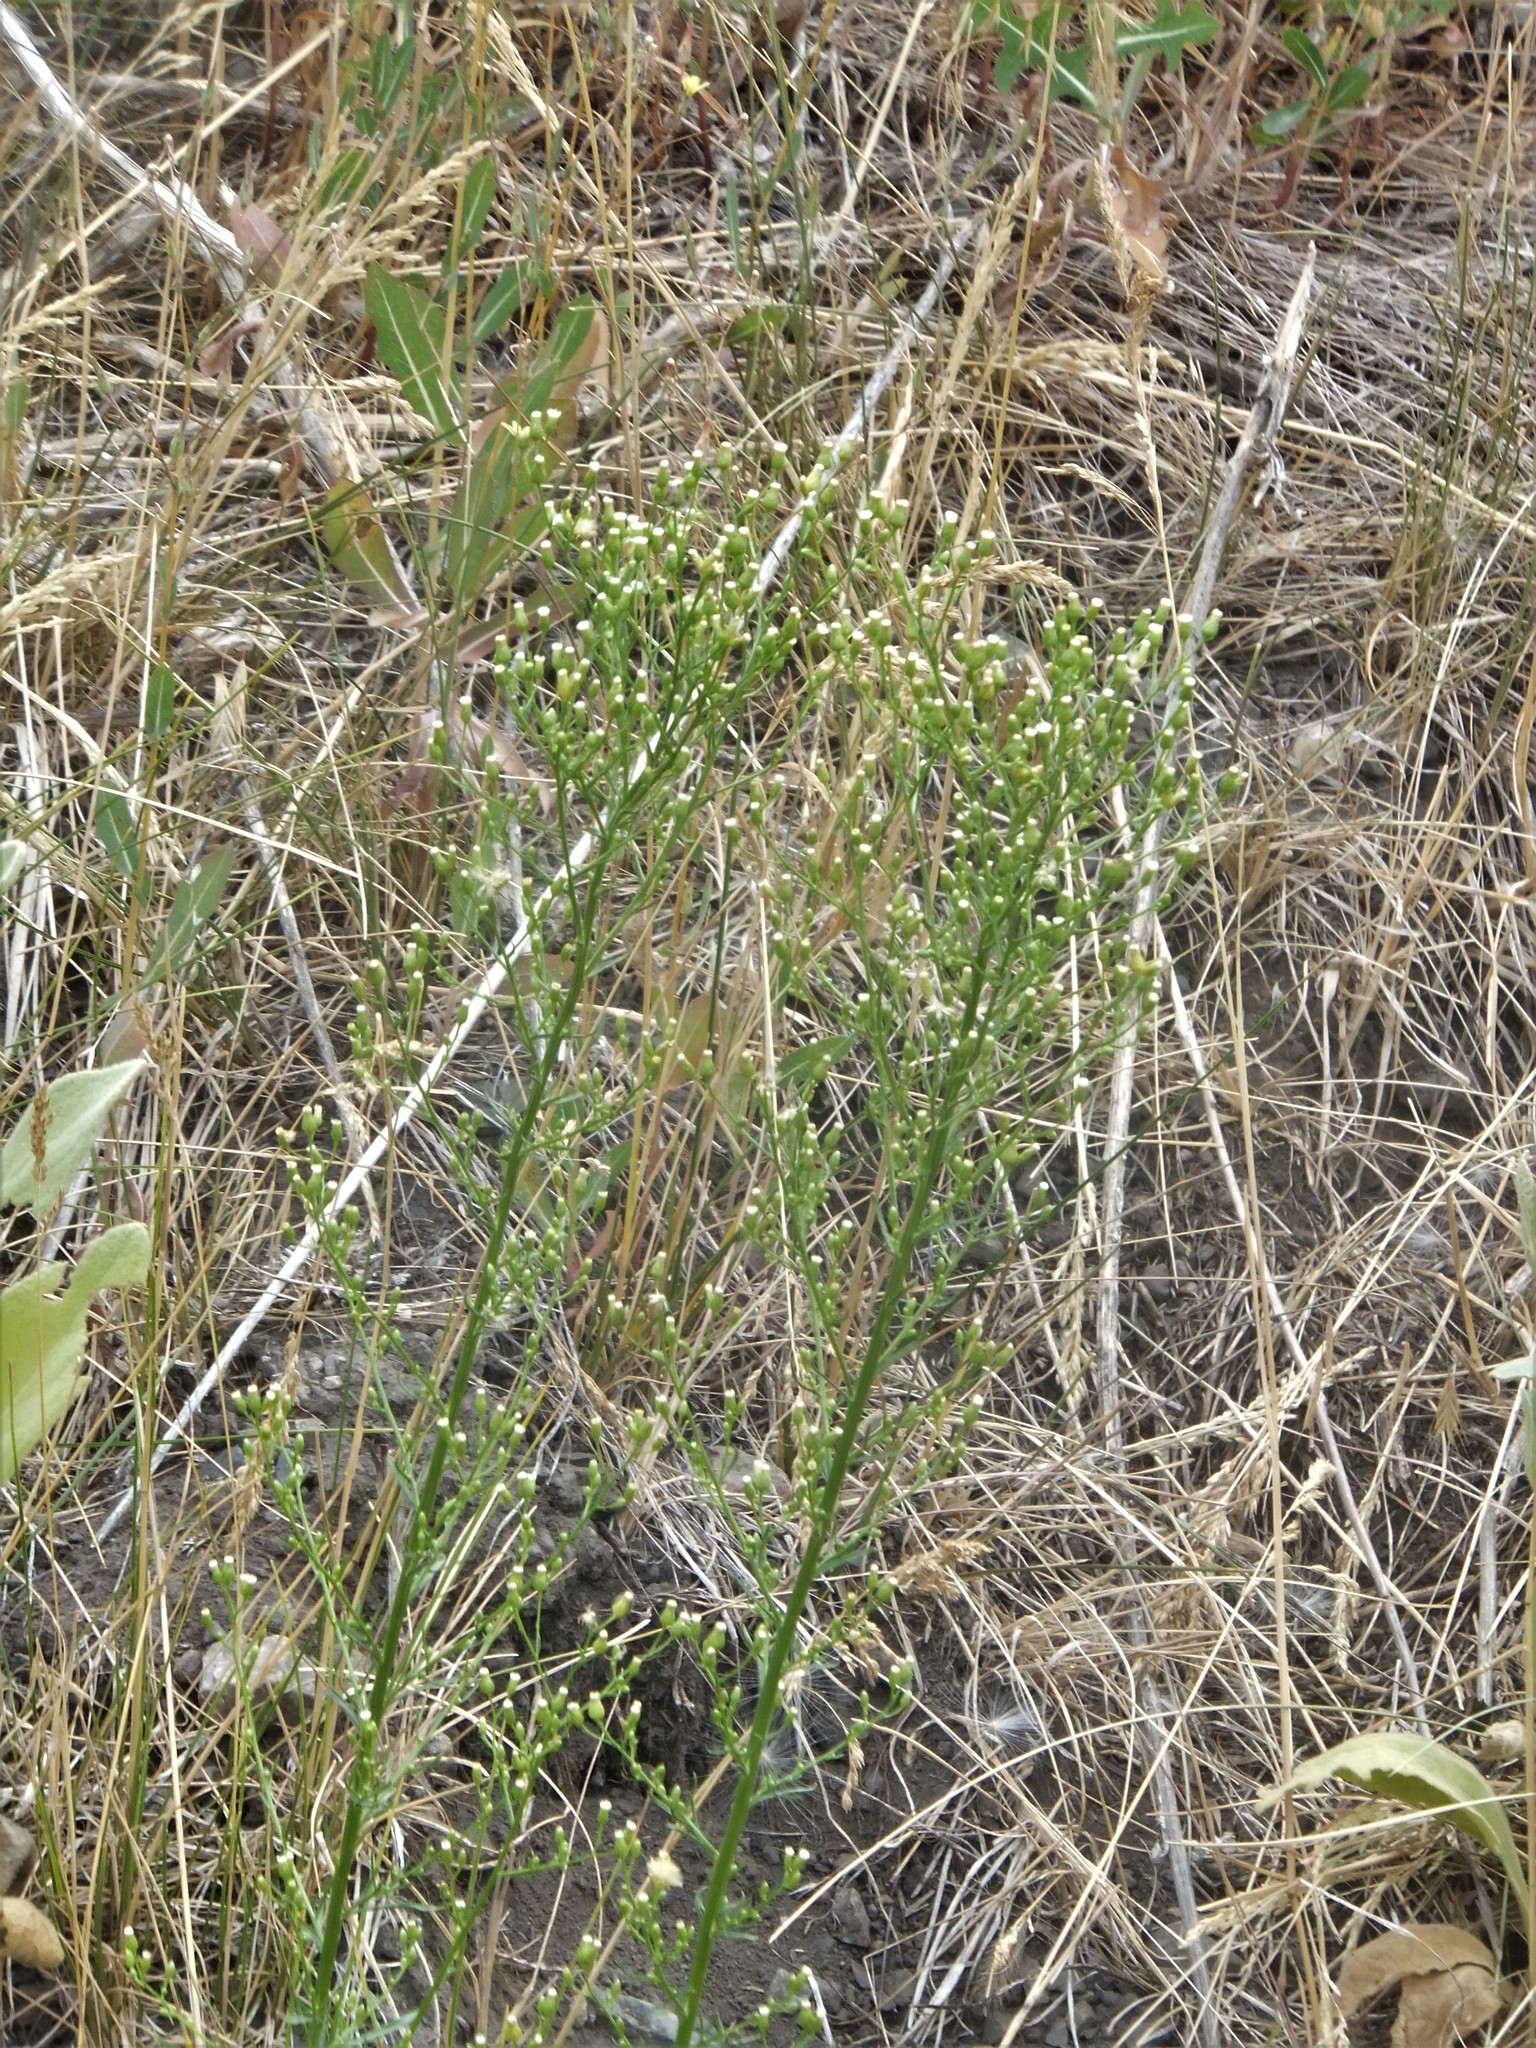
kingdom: Plantae
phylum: Tracheophyta
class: Magnoliopsida
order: Asterales
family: Asteraceae
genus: Erigeron
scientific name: Erigeron canadensis
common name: Canadian fleabane
